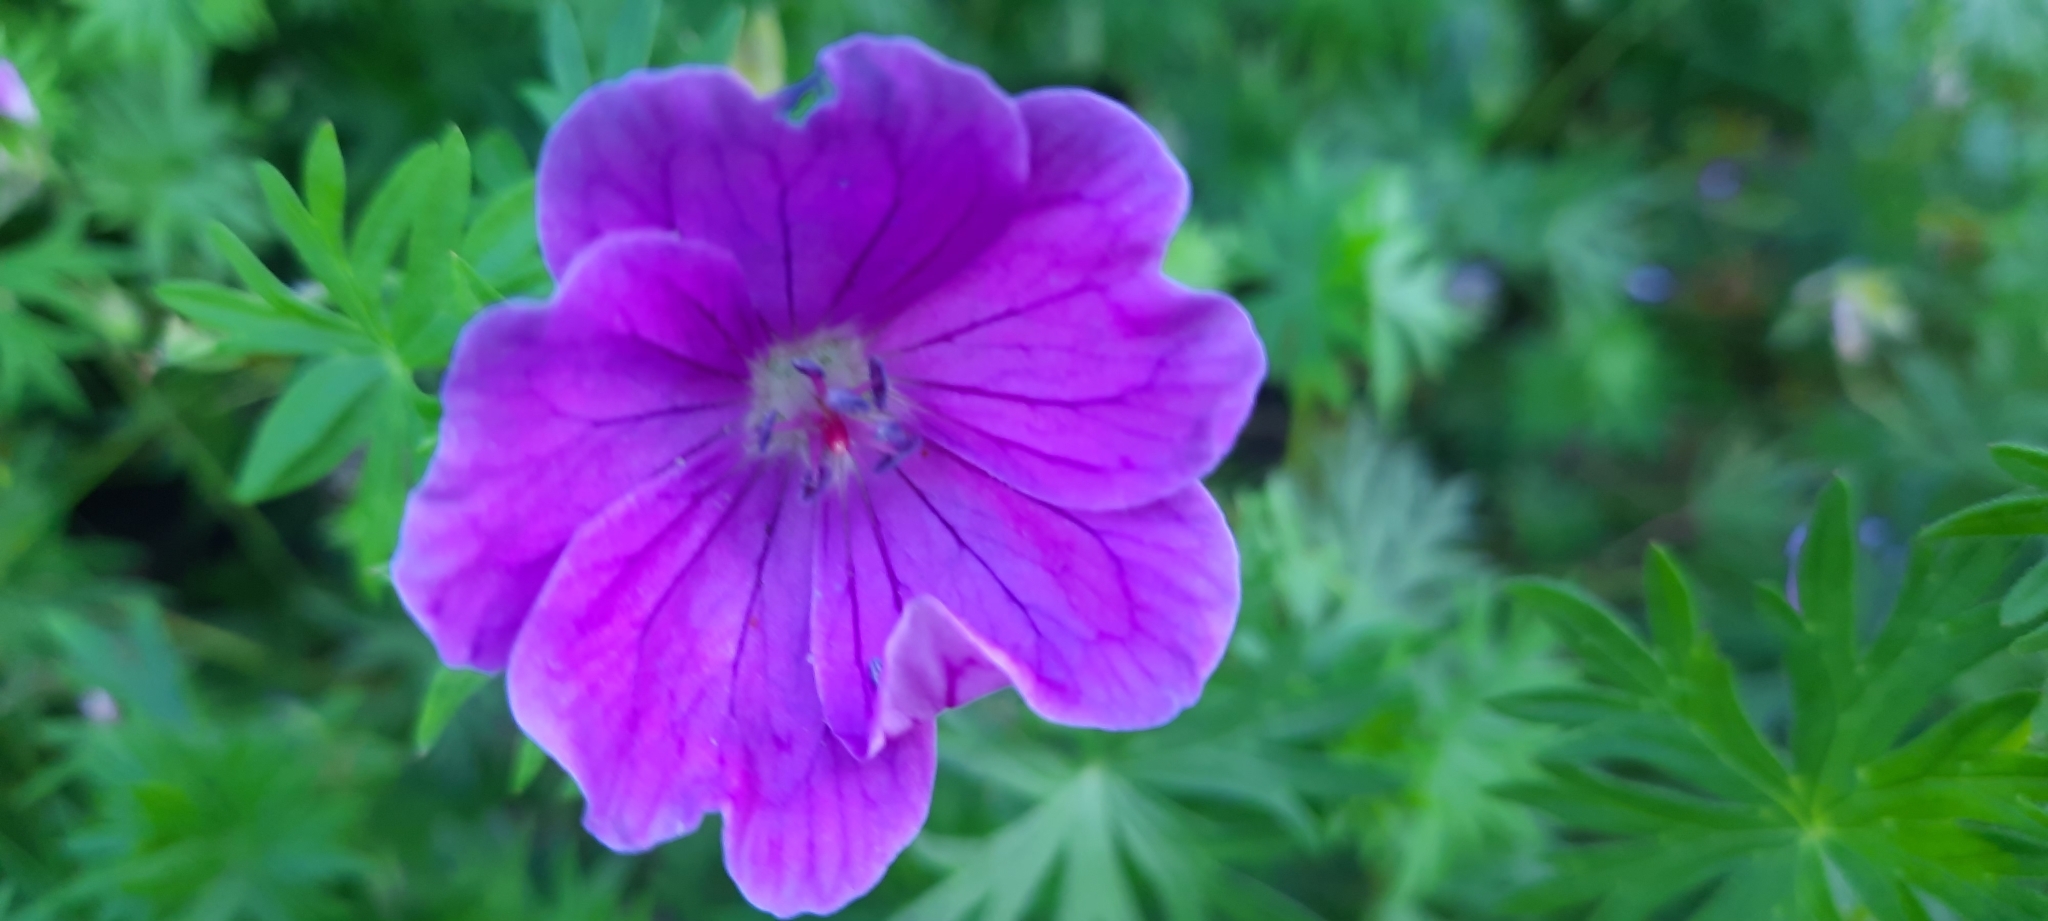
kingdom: Plantae
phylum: Tracheophyta
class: Magnoliopsida
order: Geraniales
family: Geraniaceae
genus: Geranium
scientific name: Geranium sanguineum
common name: Bloody crane's-bill
